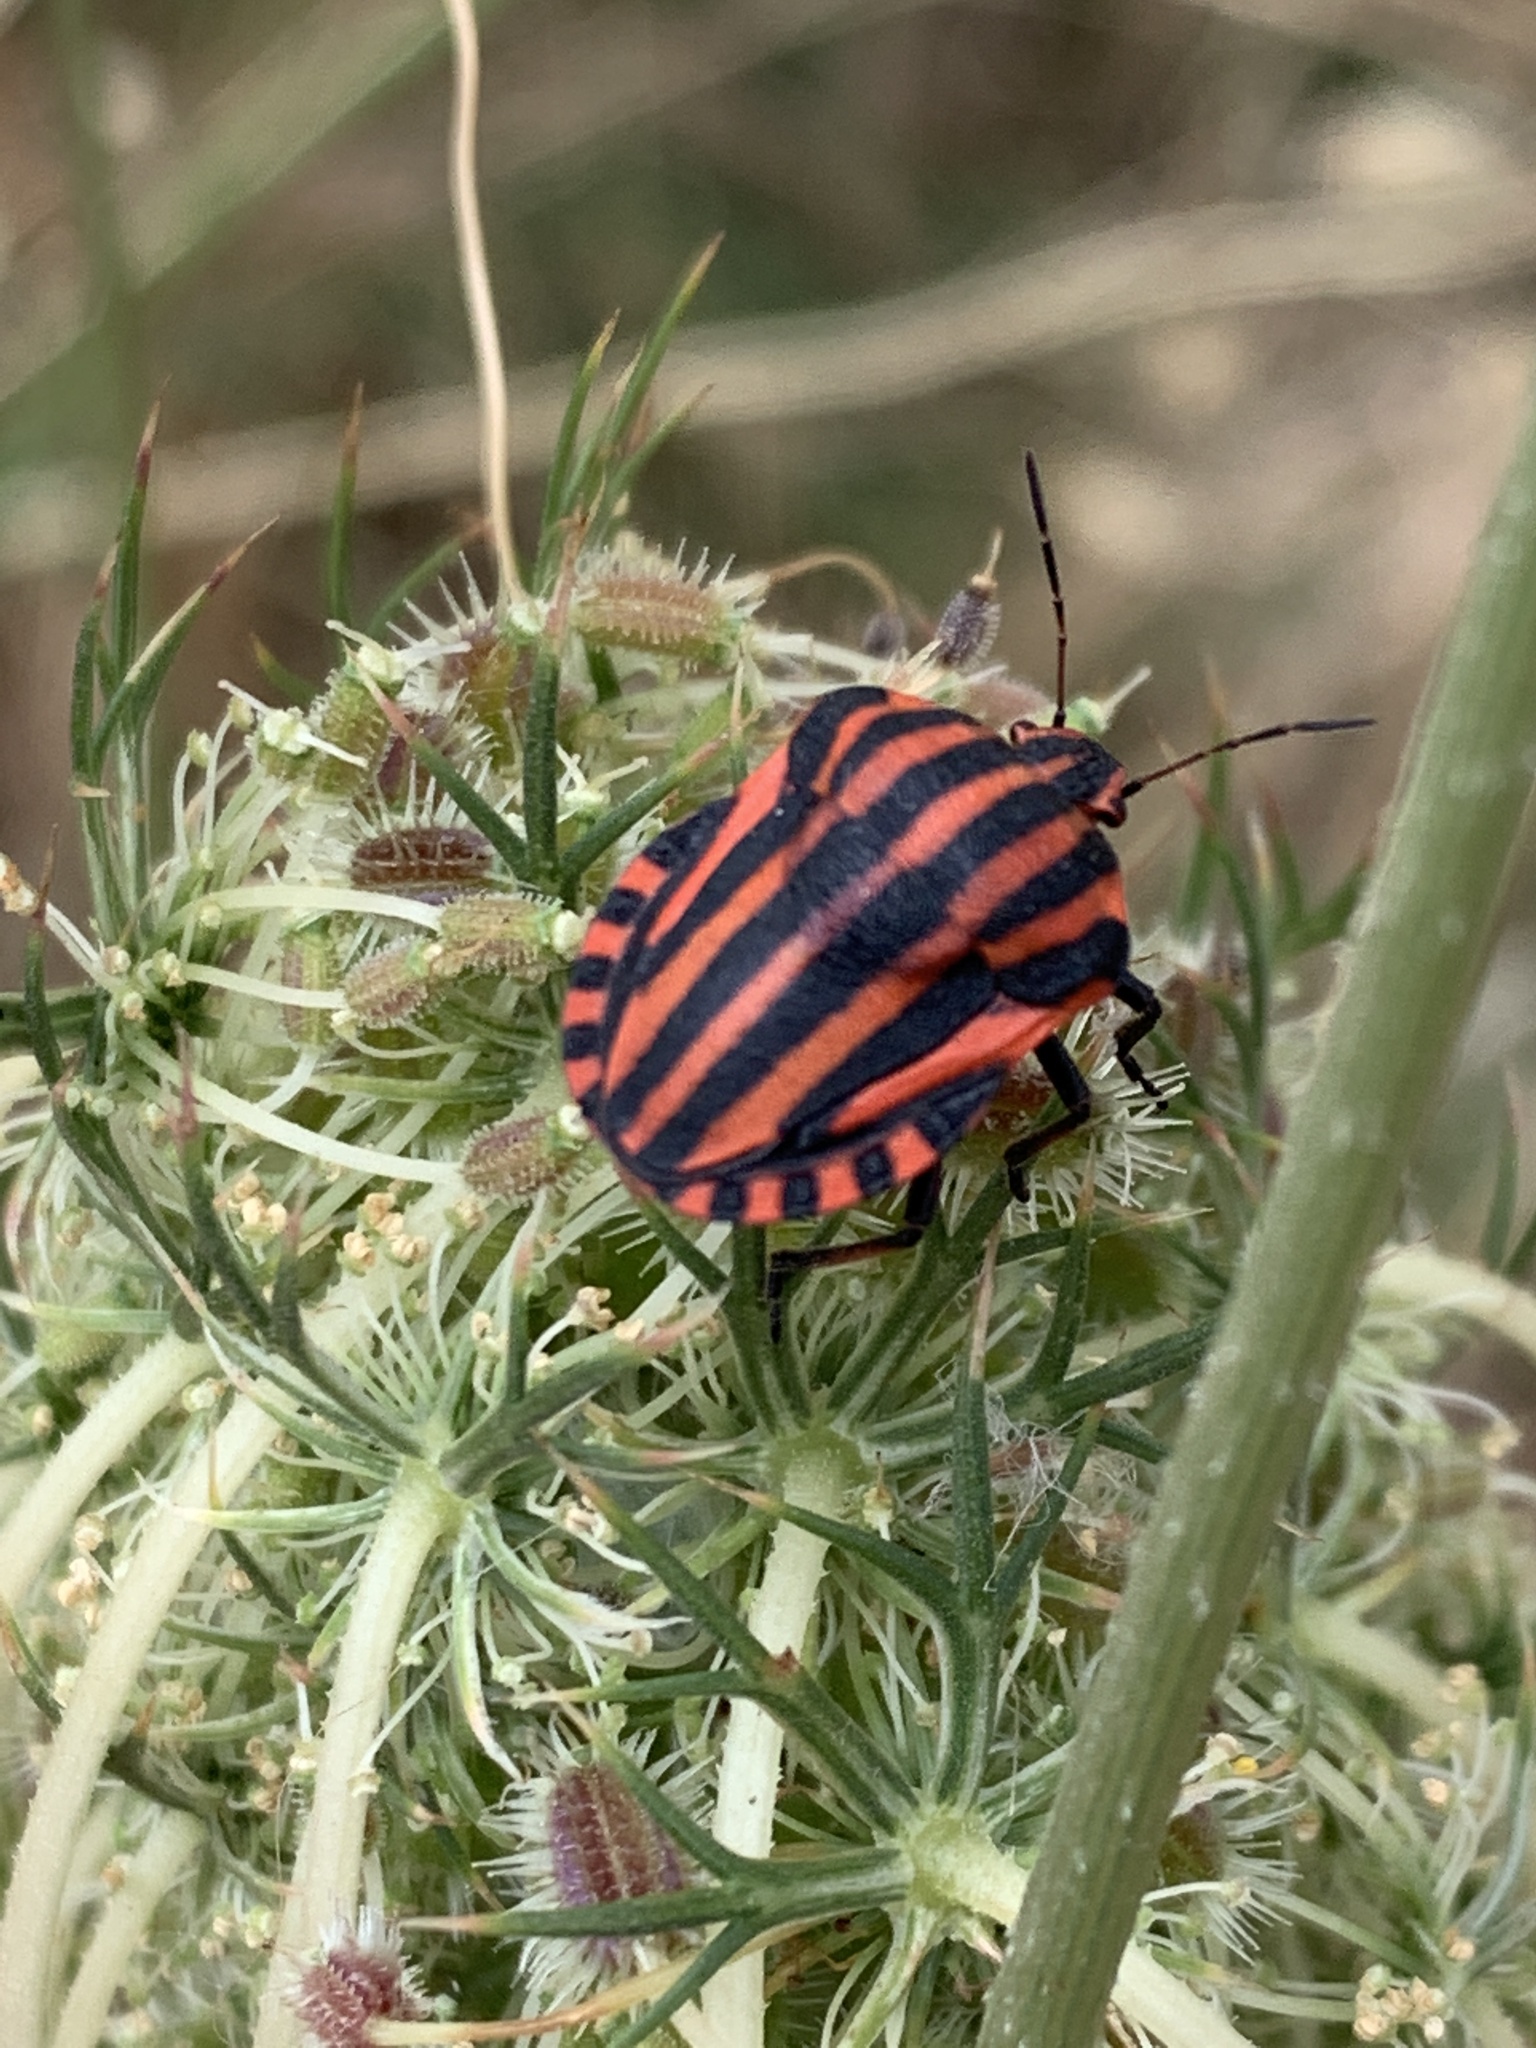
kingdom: Animalia
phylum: Arthropoda
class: Insecta
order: Hemiptera
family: Pentatomidae
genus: Graphosoma
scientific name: Graphosoma italicum
